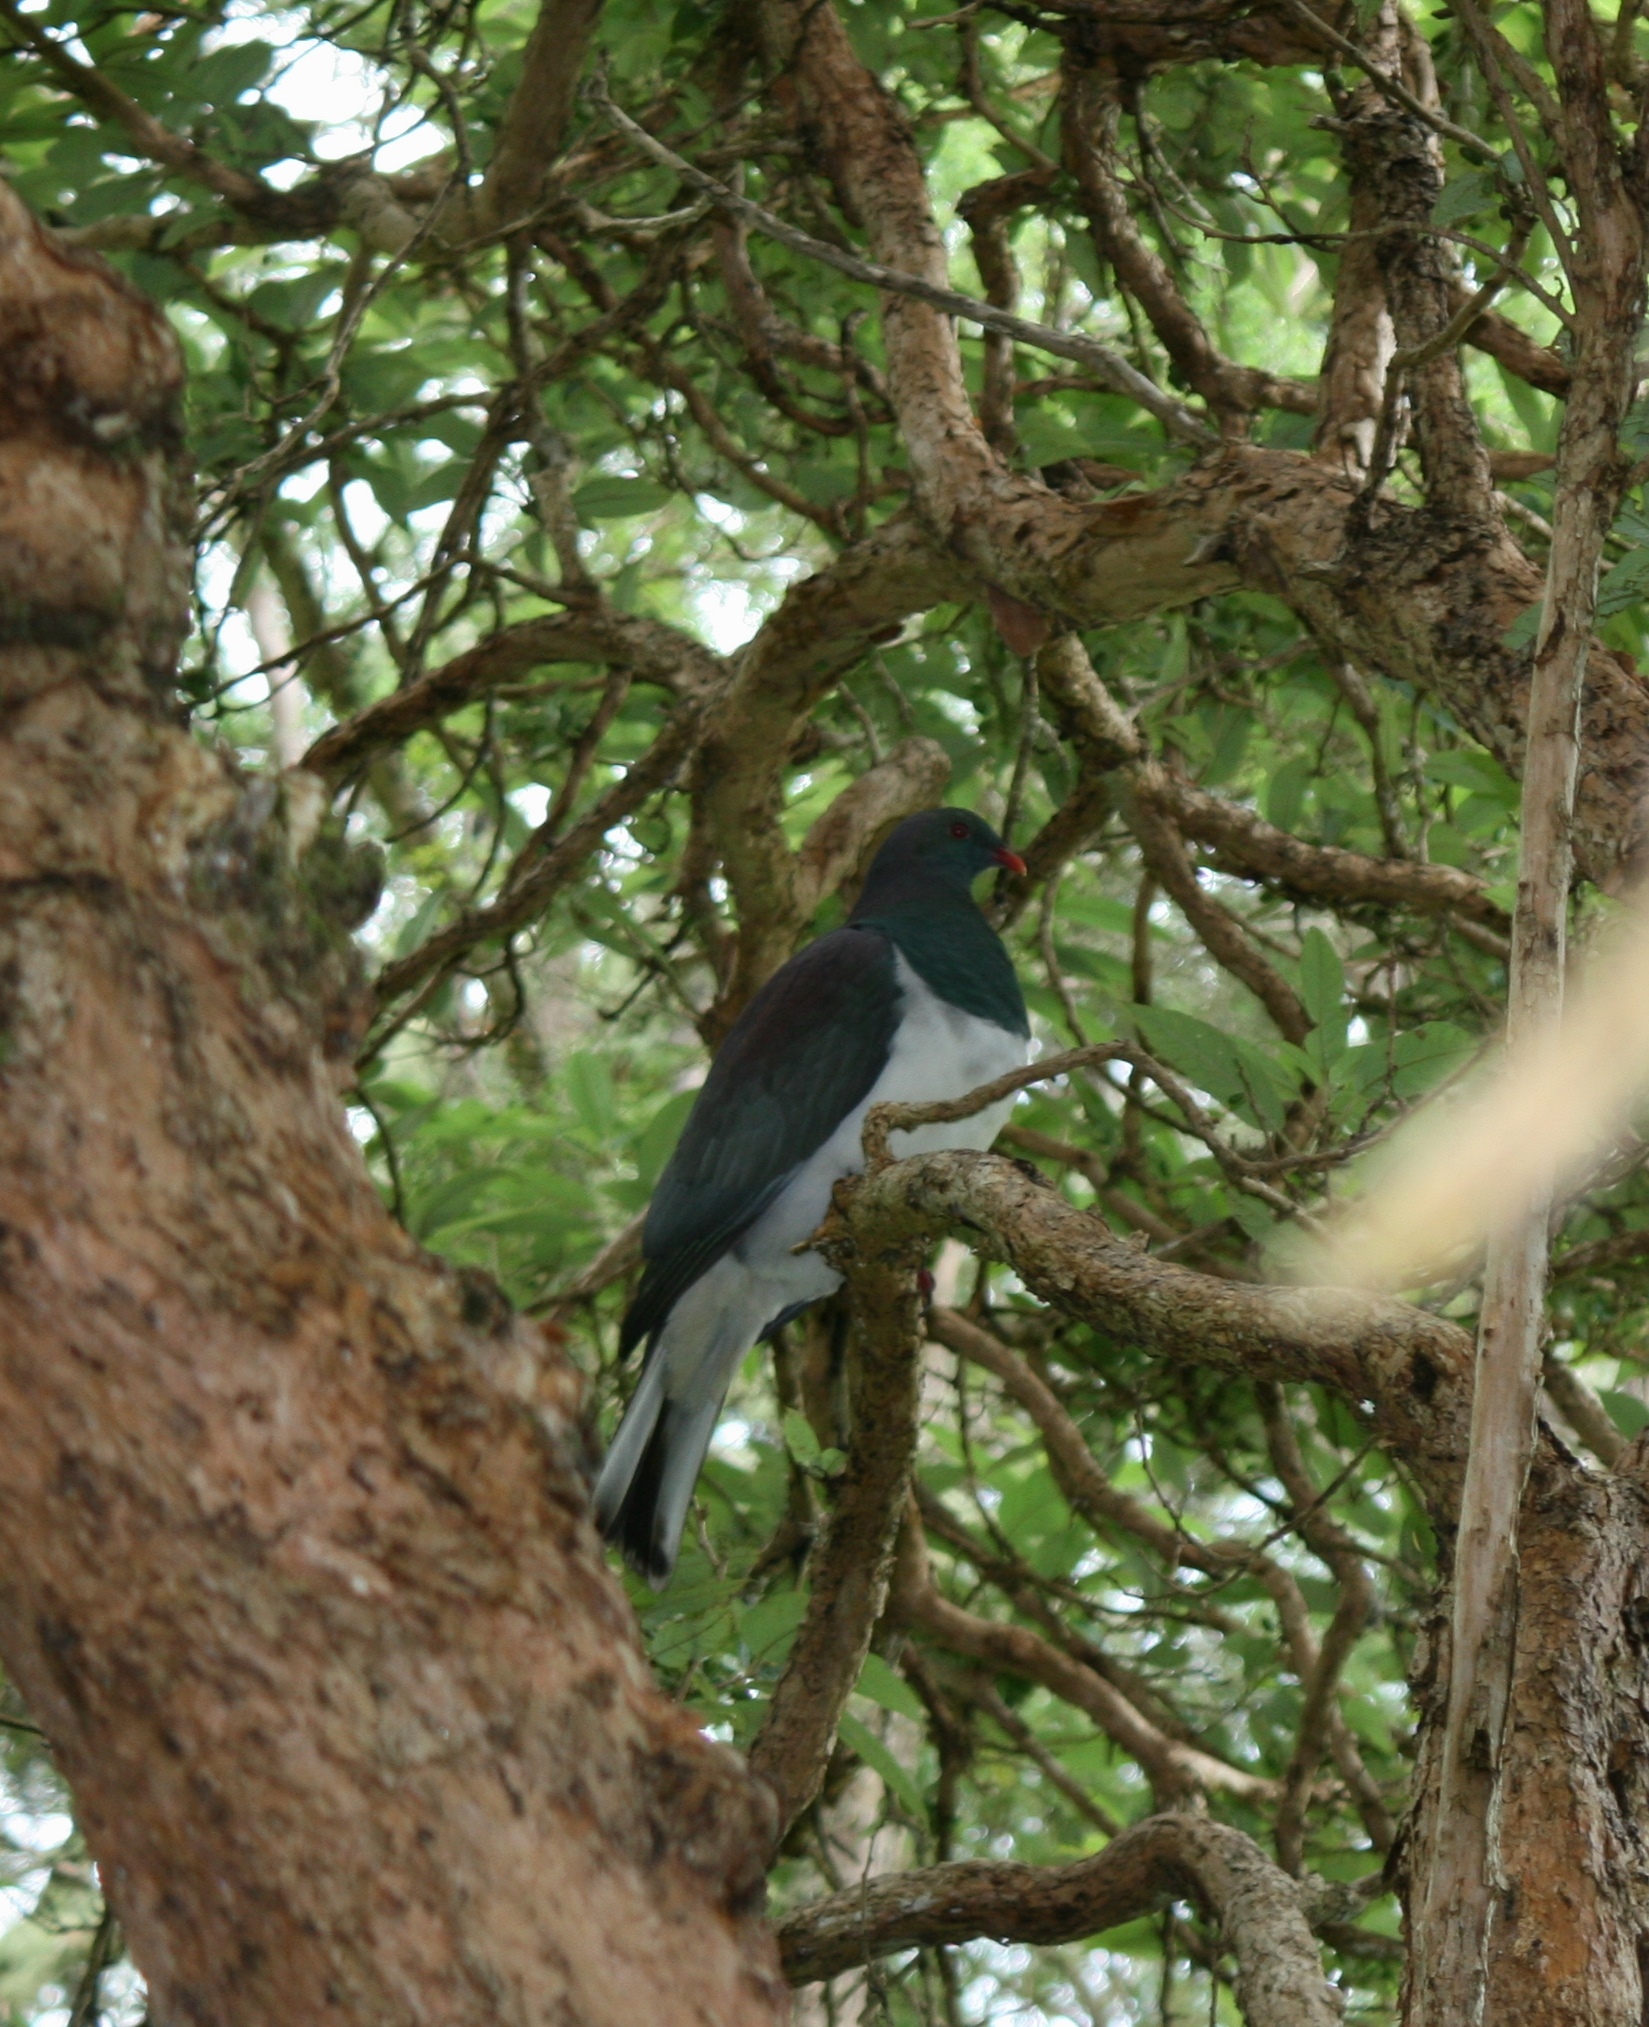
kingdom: Animalia
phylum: Chordata
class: Aves
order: Columbiformes
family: Columbidae
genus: Hemiphaga
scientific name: Hemiphaga novaeseelandiae
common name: New zealand pigeon
